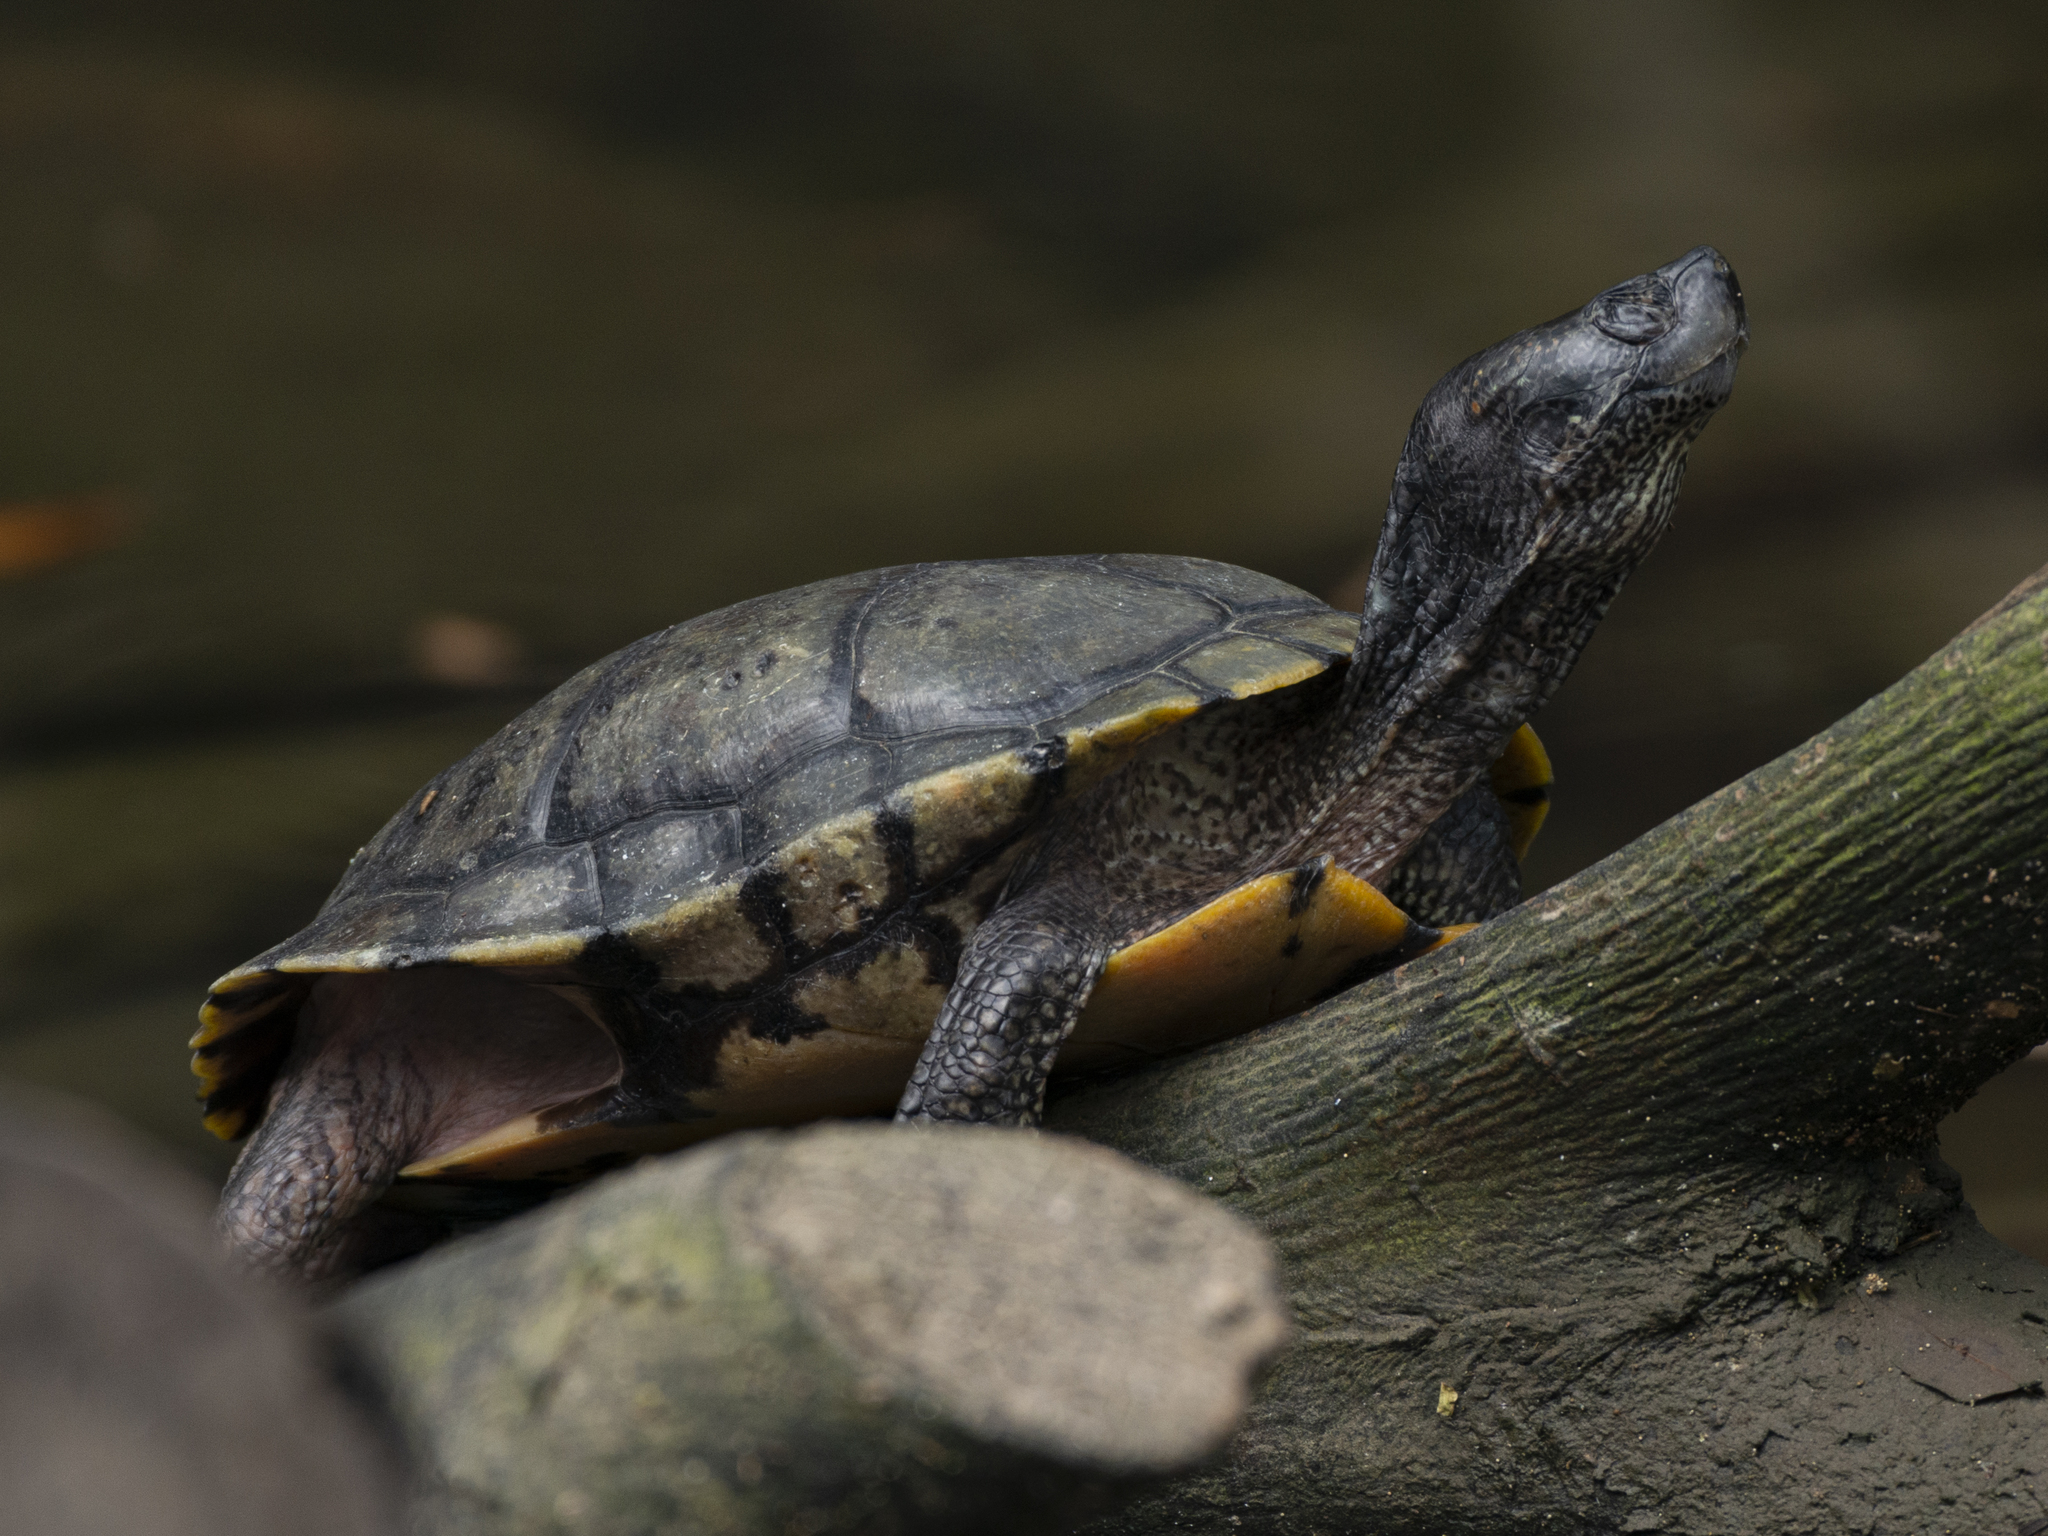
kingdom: Animalia
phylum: Chordata
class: Testudines
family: Emydidae
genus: Trachemys
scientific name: Trachemys scripta
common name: Slider
